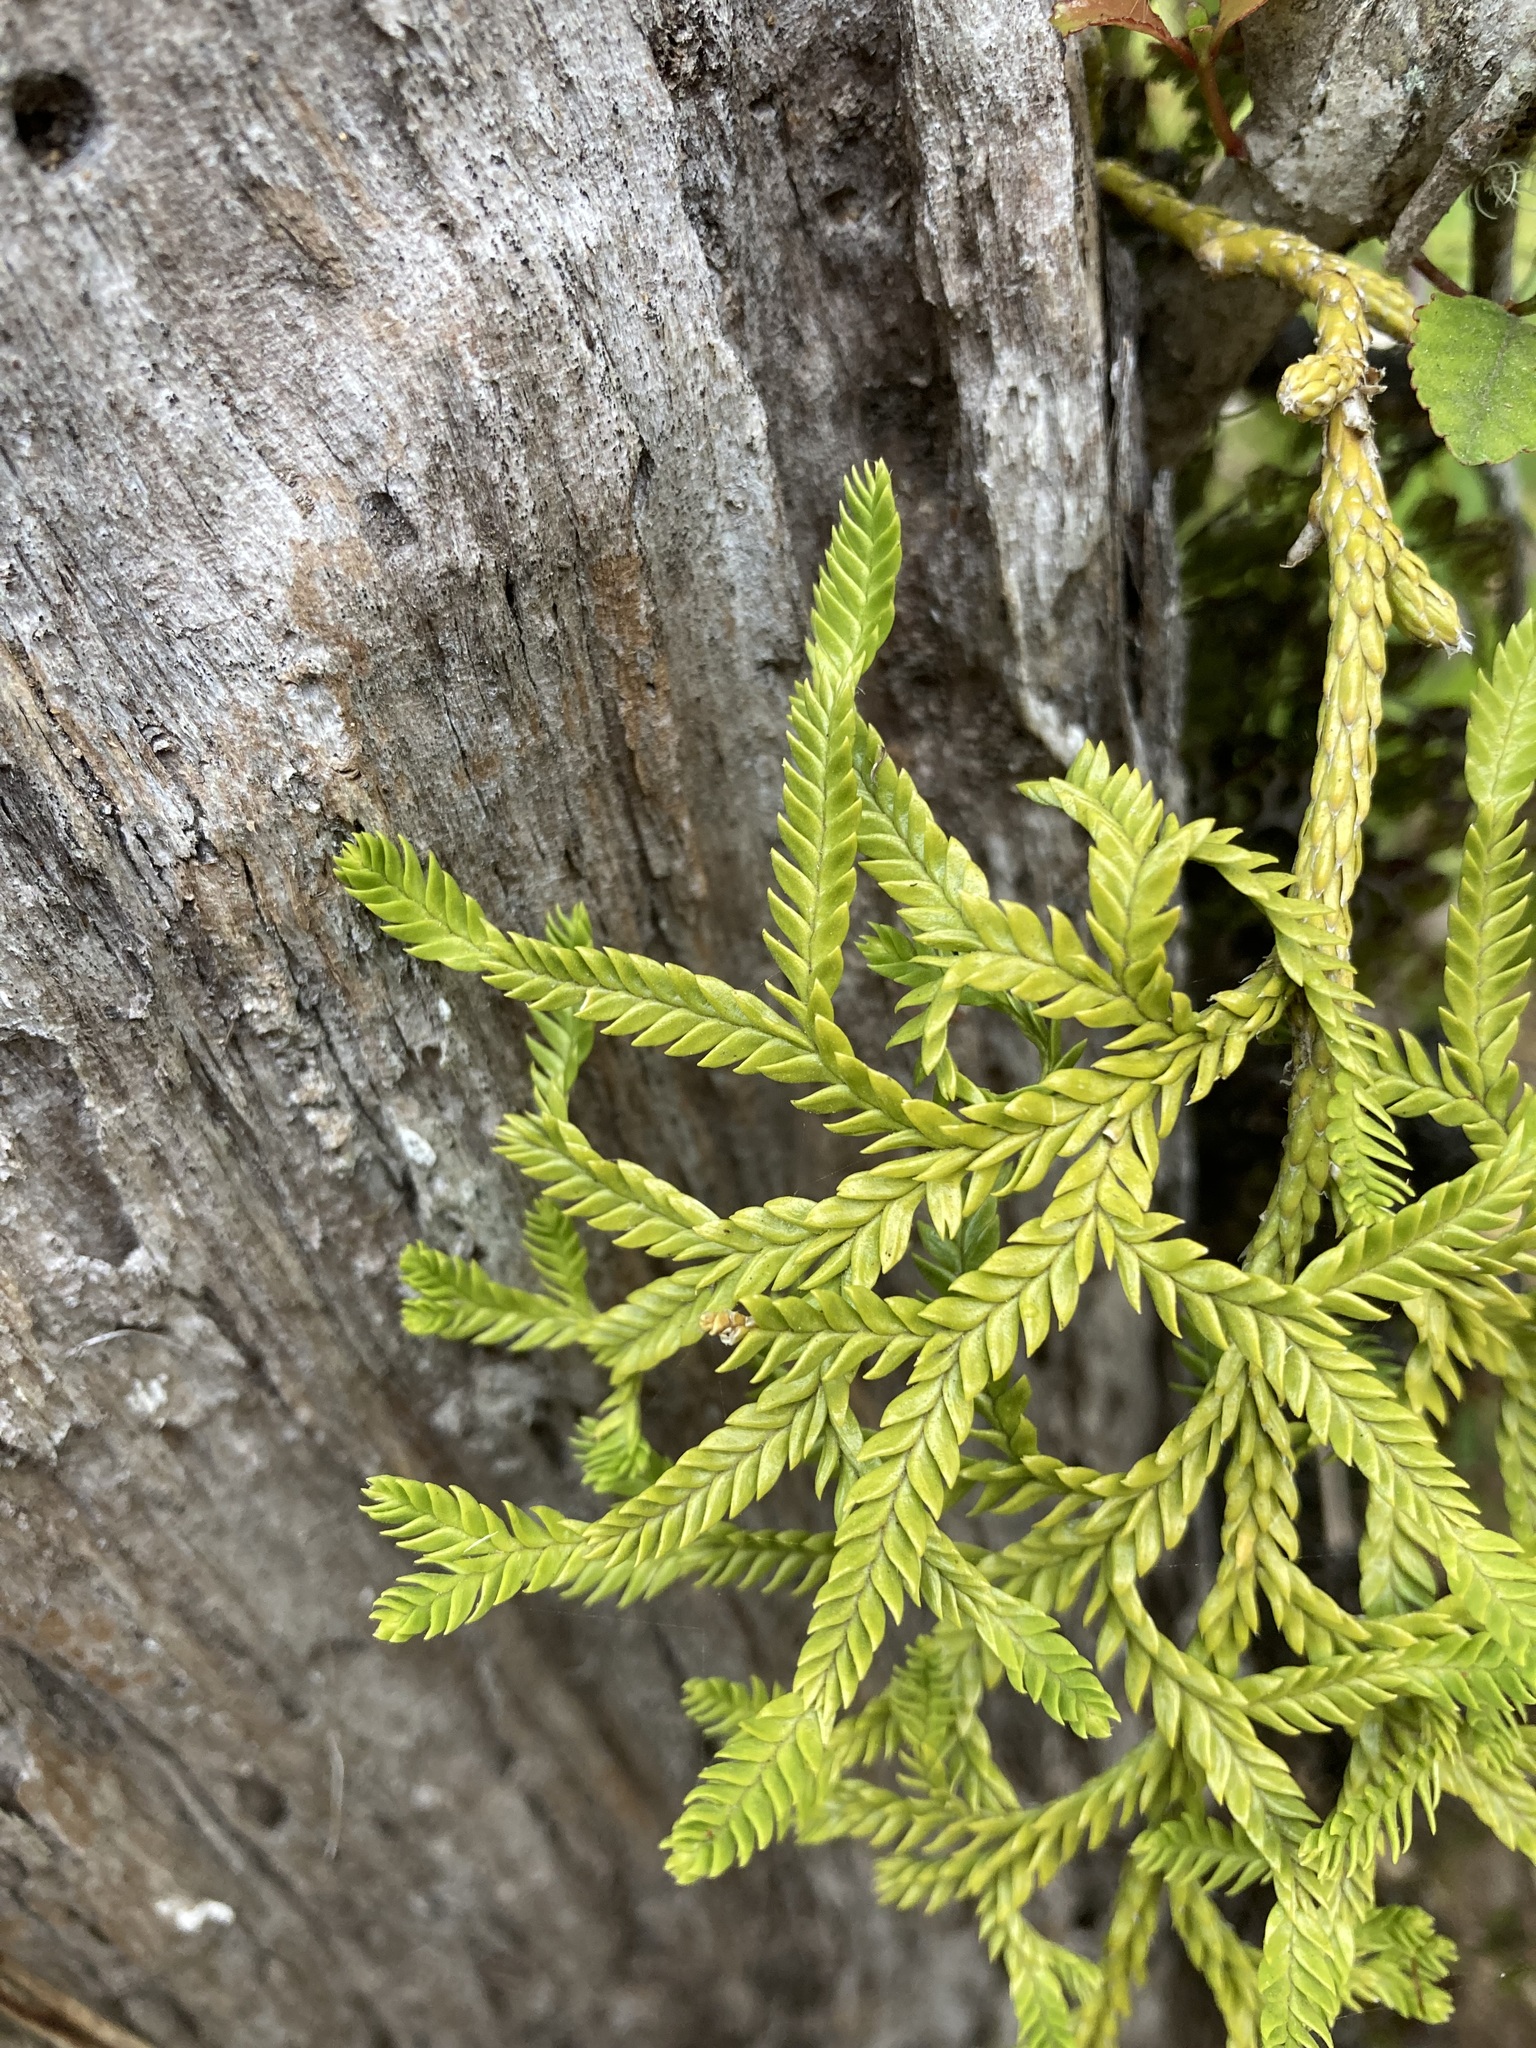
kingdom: Plantae
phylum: Tracheophyta
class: Lycopodiopsida
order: Lycopodiales
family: Lycopodiaceae
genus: Lycopodium
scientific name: Lycopodium volubile
